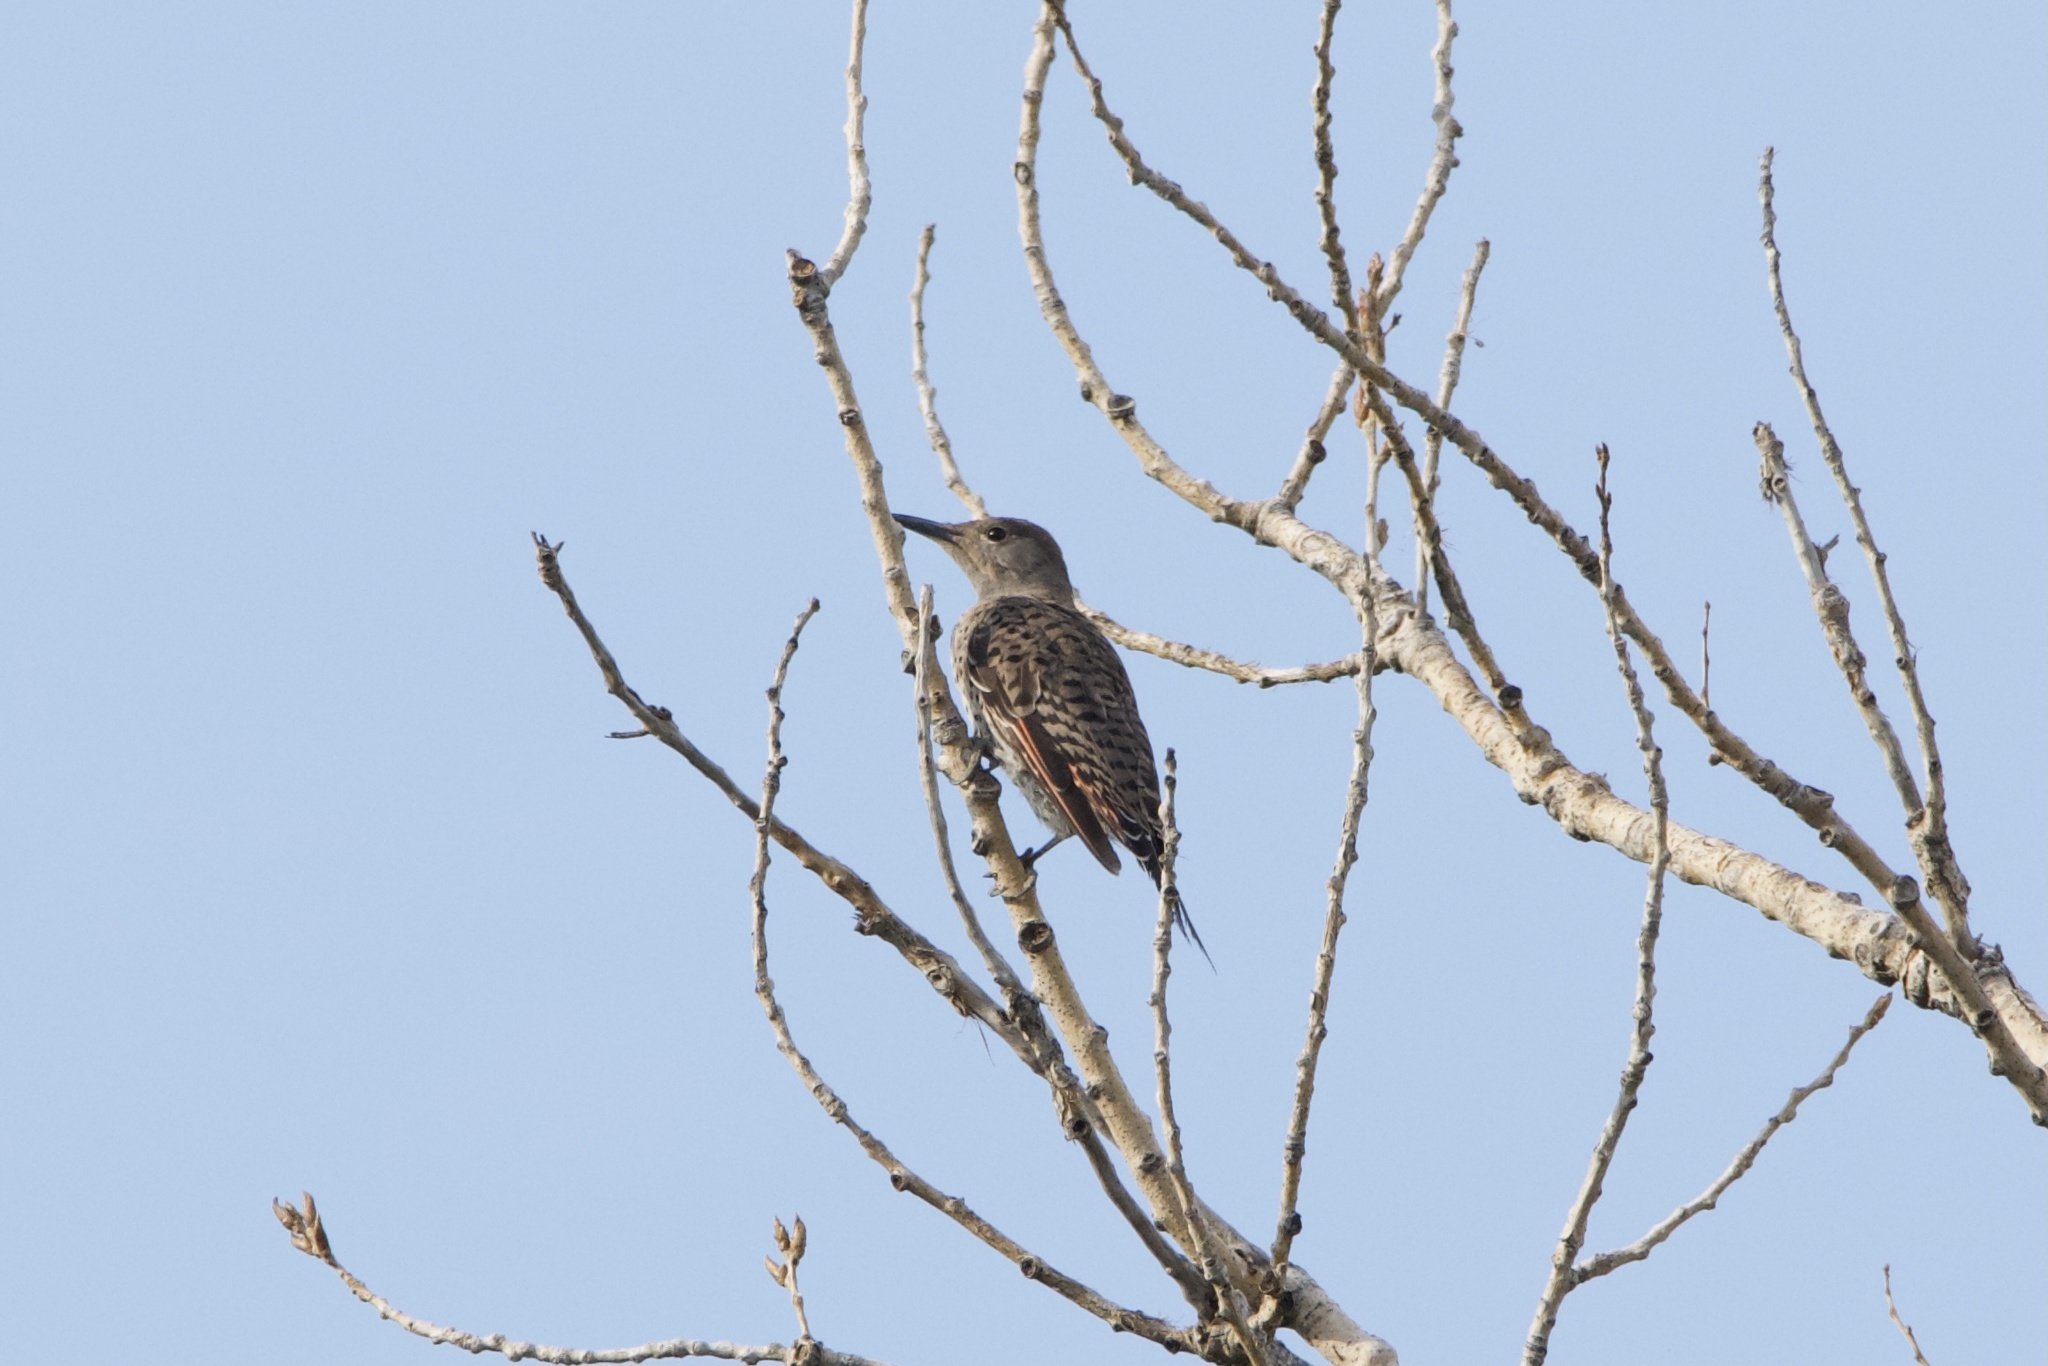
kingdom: Animalia
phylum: Chordata
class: Aves
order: Piciformes
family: Picidae
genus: Colaptes
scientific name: Colaptes auratus
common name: Northern flicker
